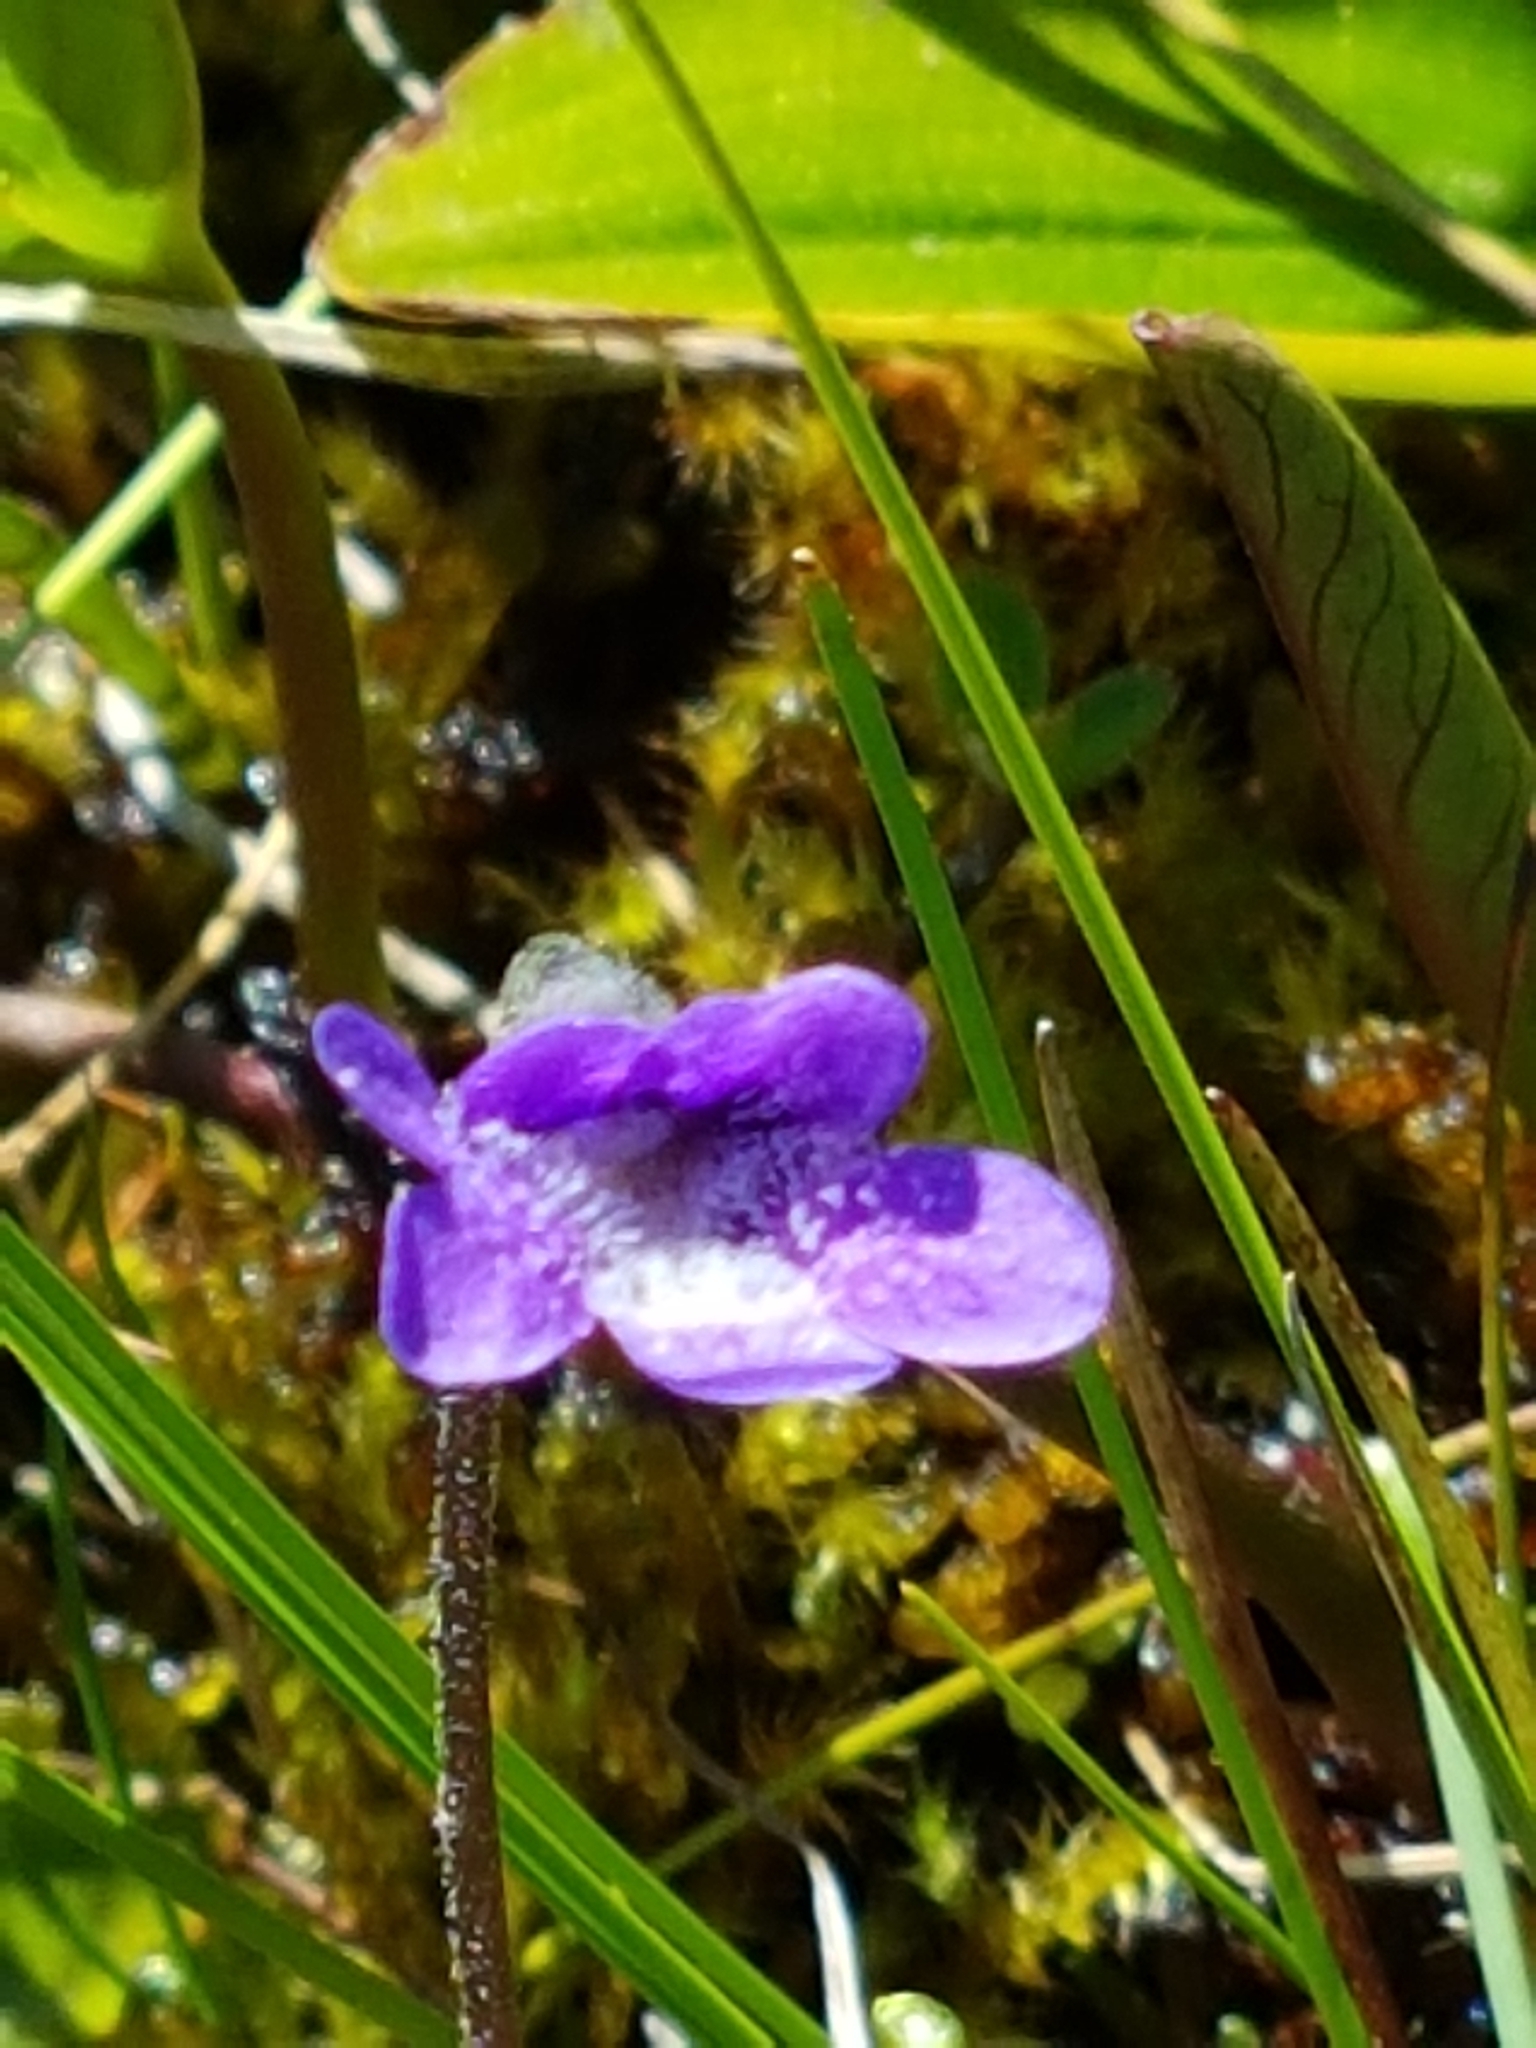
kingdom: Plantae
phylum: Tracheophyta
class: Magnoliopsida
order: Lamiales
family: Lentibulariaceae
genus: Pinguicula
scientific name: Pinguicula vulgaris
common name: Common butterwort
